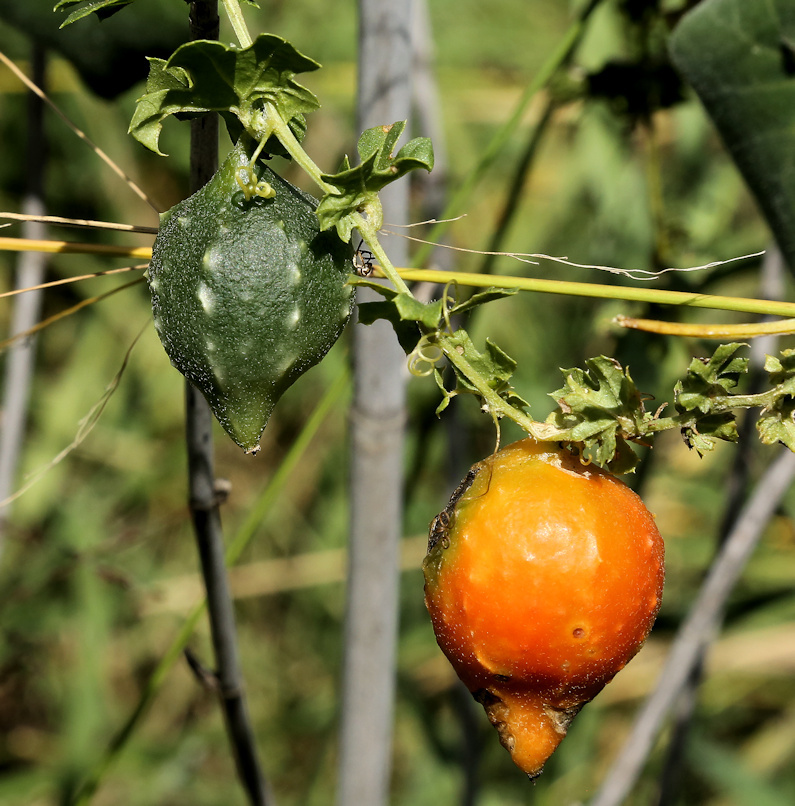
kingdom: Plantae
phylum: Tracheophyta
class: Magnoliopsida
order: Cucurbitales
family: Cucurbitaceae
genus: Momordica
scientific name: Momordica balsamina
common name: Southern balsampear
